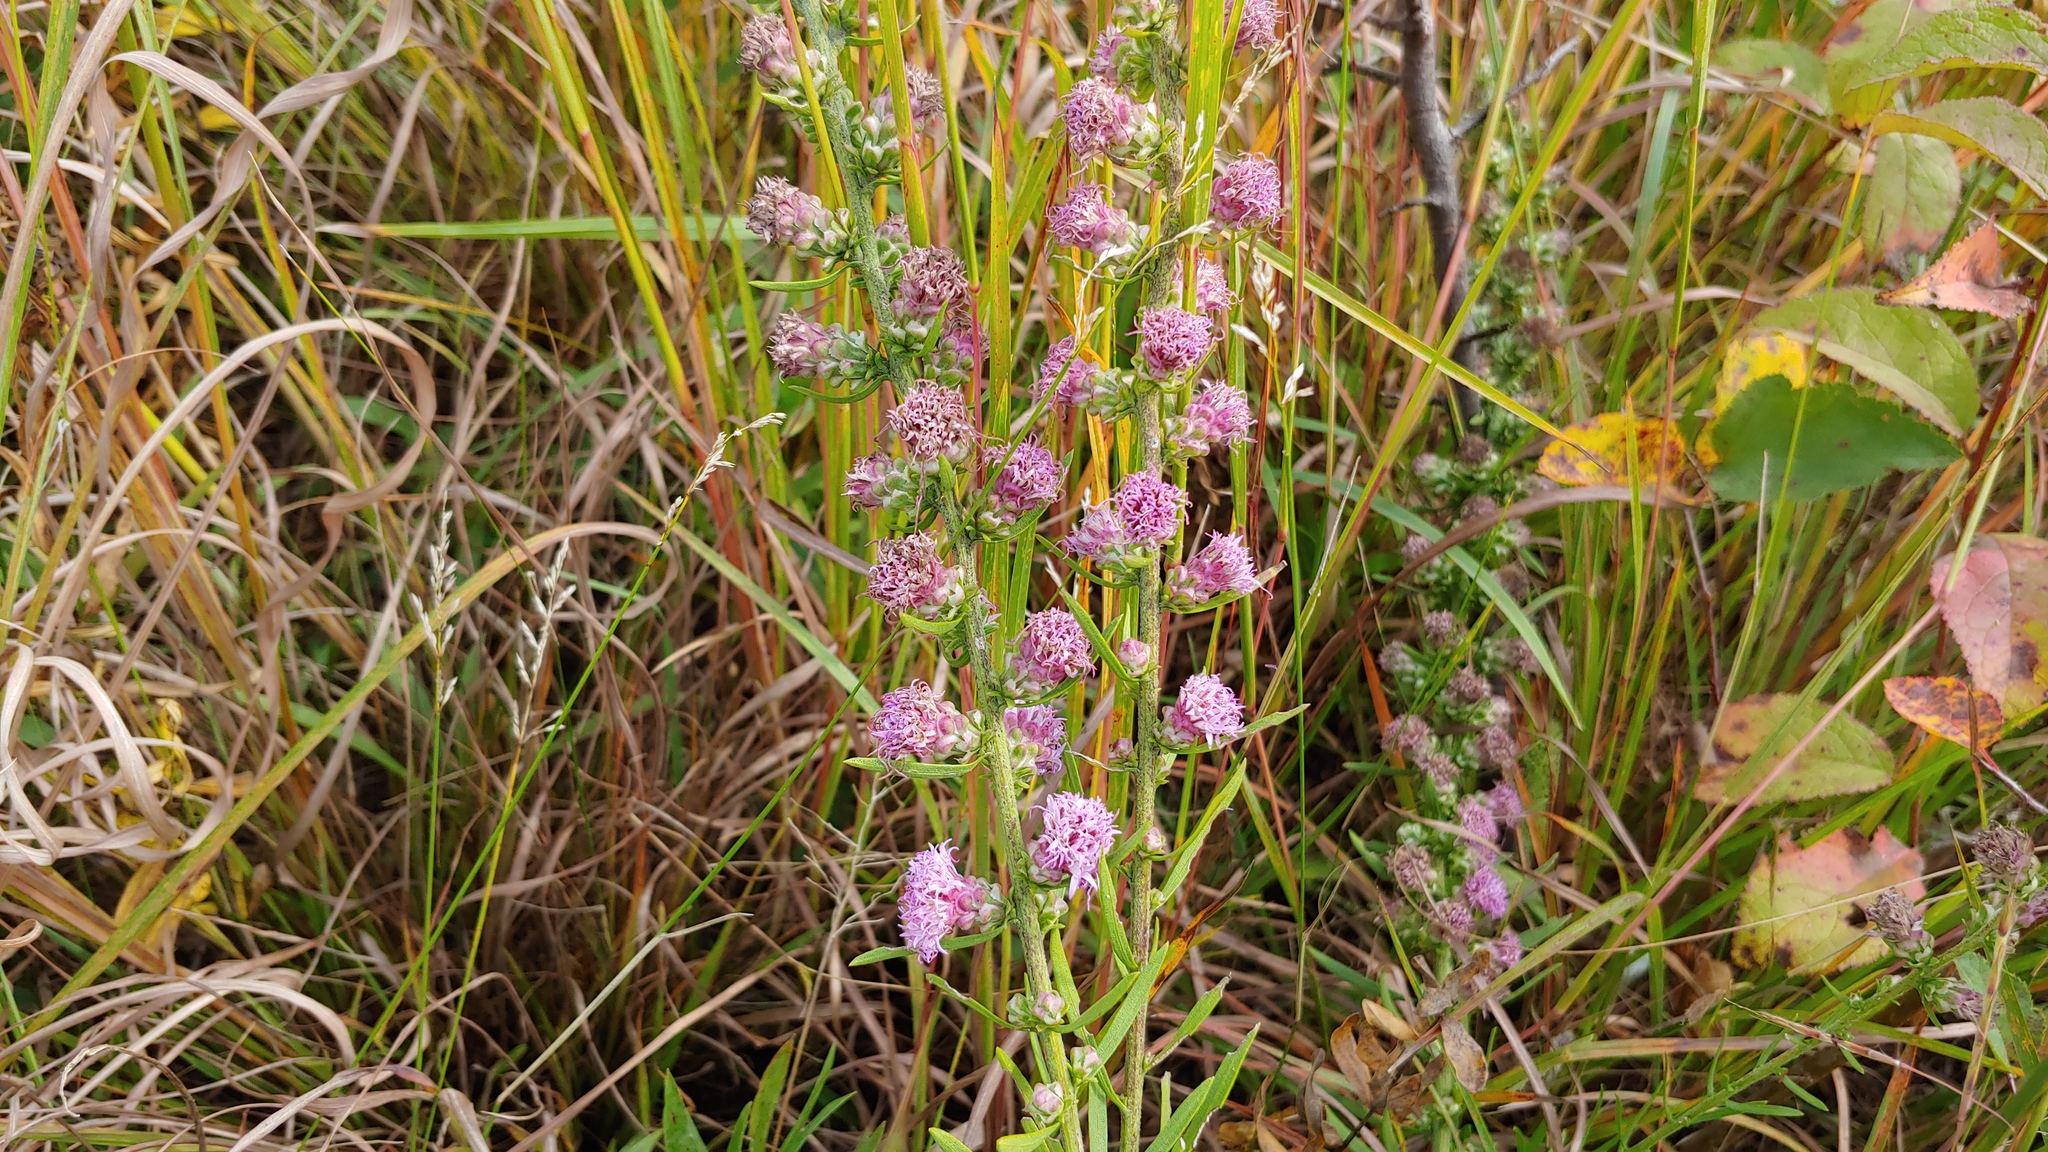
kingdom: Plantae
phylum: Tracheophyta
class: Magnoliopsida
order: Asterales
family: Asteraceae
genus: Liatris
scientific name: Liatris aspera
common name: Lacerate blazing-star
